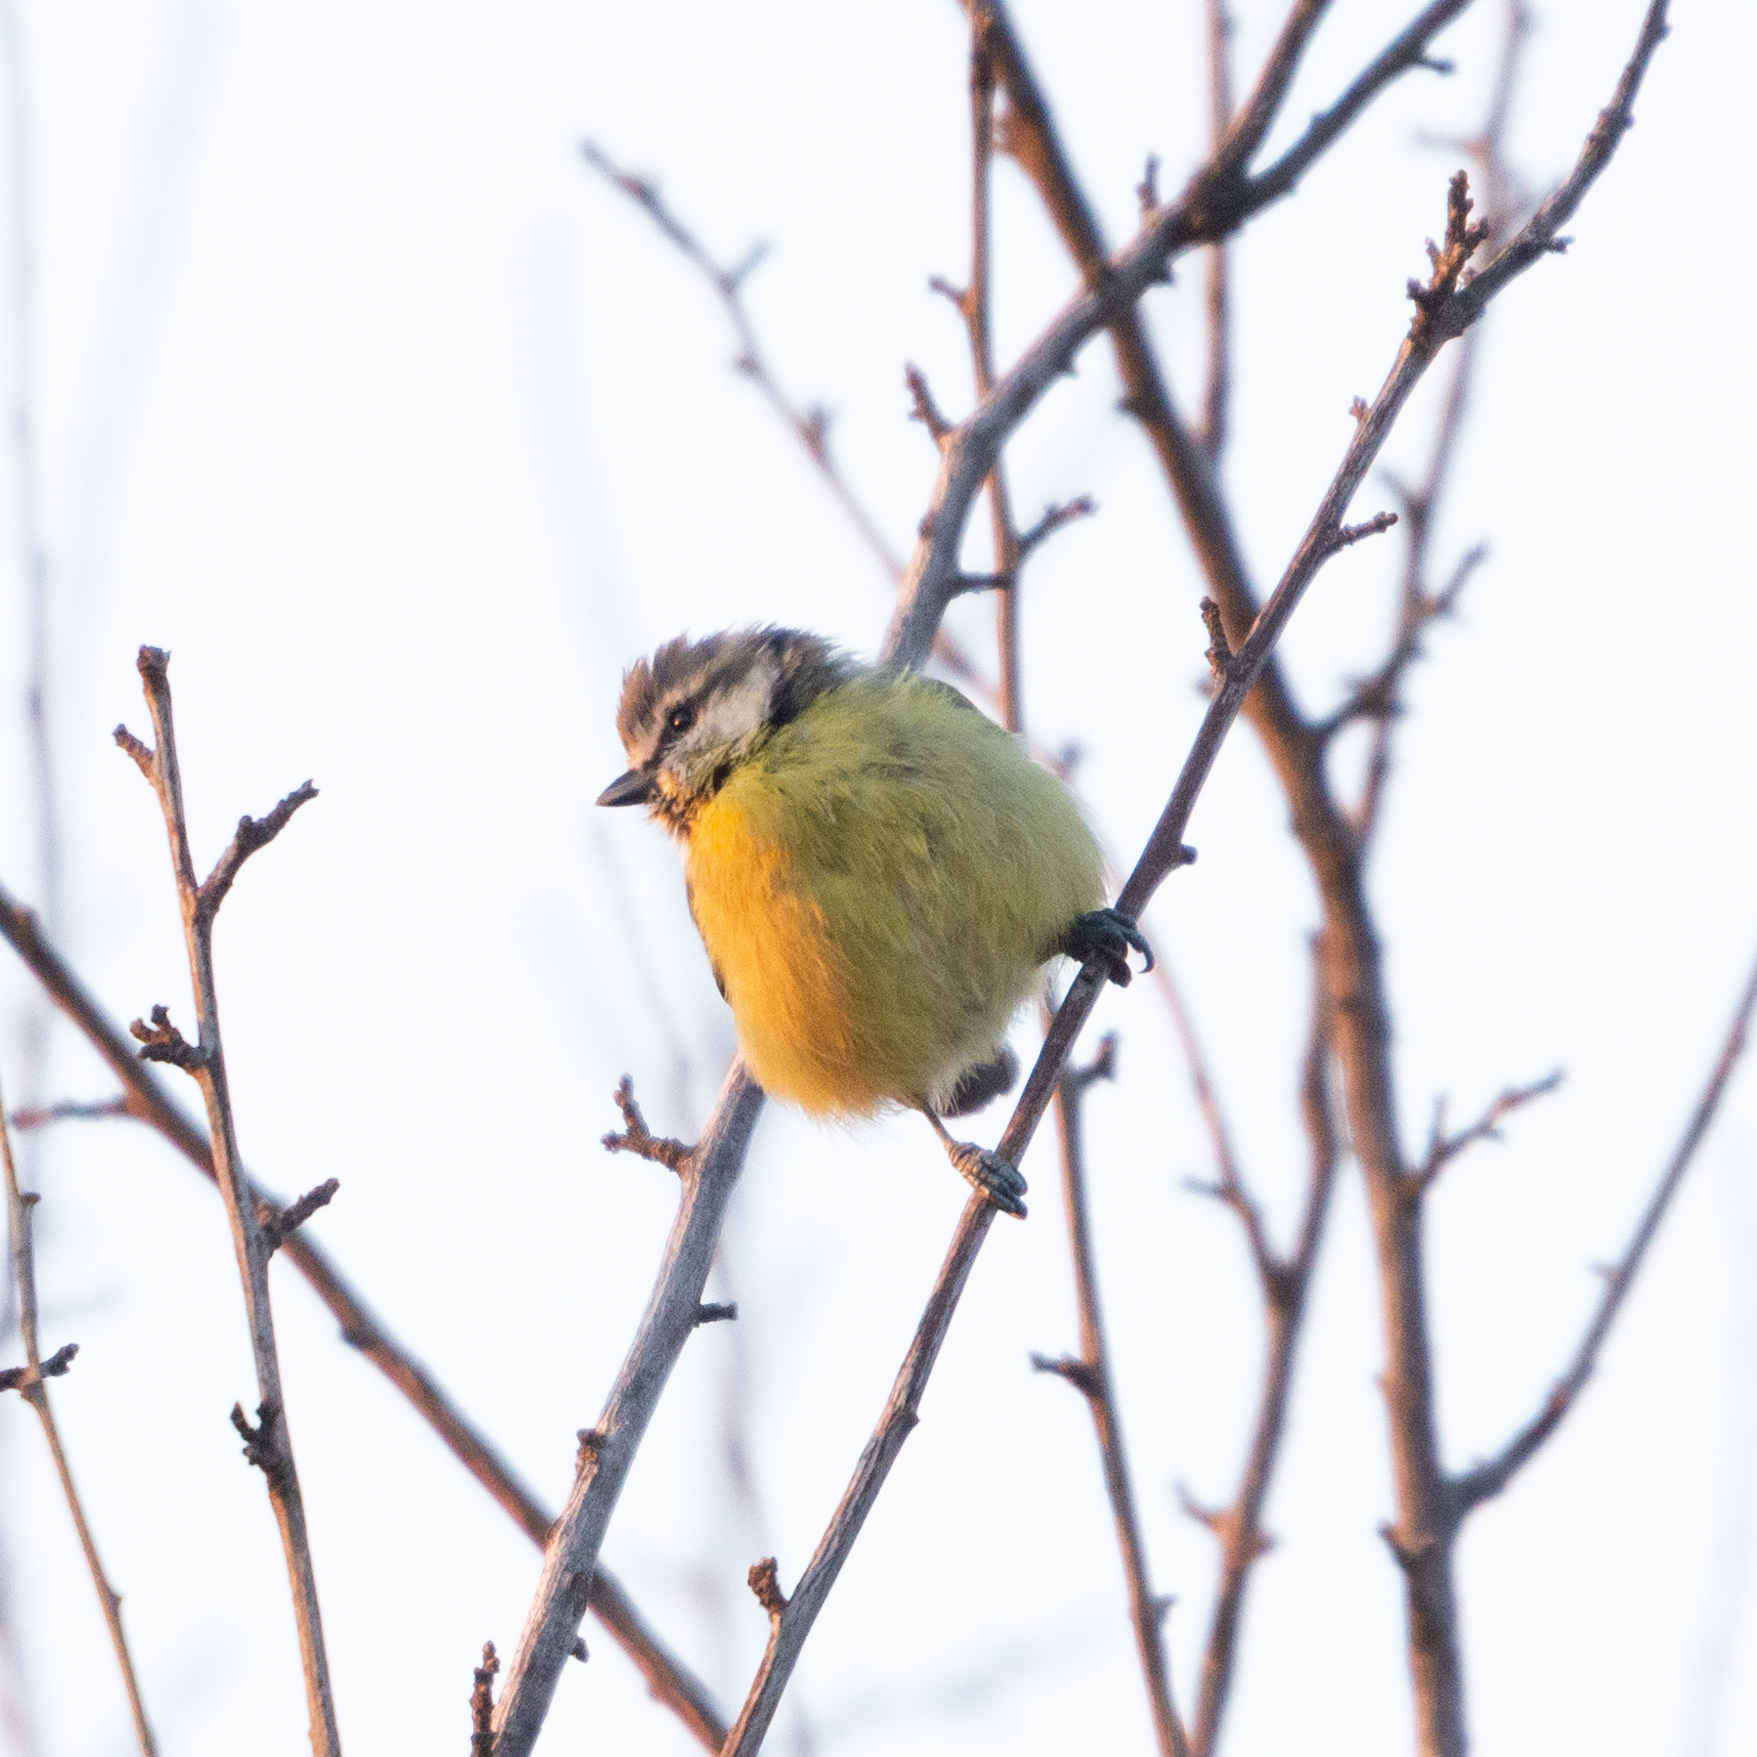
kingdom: Animalia
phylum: Chordata
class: Aves
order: Passeriformes
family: Paridae
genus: Cyanistes
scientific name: Cyanistes caeruleus
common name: Eurasian blue tit
